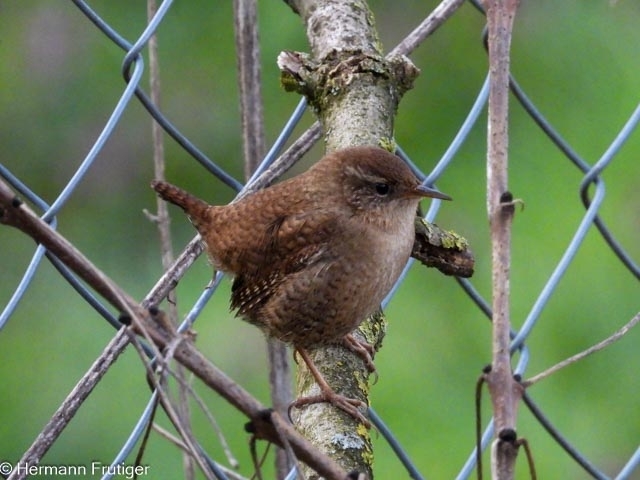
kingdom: Animalia
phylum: Chordata
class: Aves
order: Passeriformes
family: Troglodytidae
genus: Troglodytes
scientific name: Troglodytes troglodytes
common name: Eurasian wren
